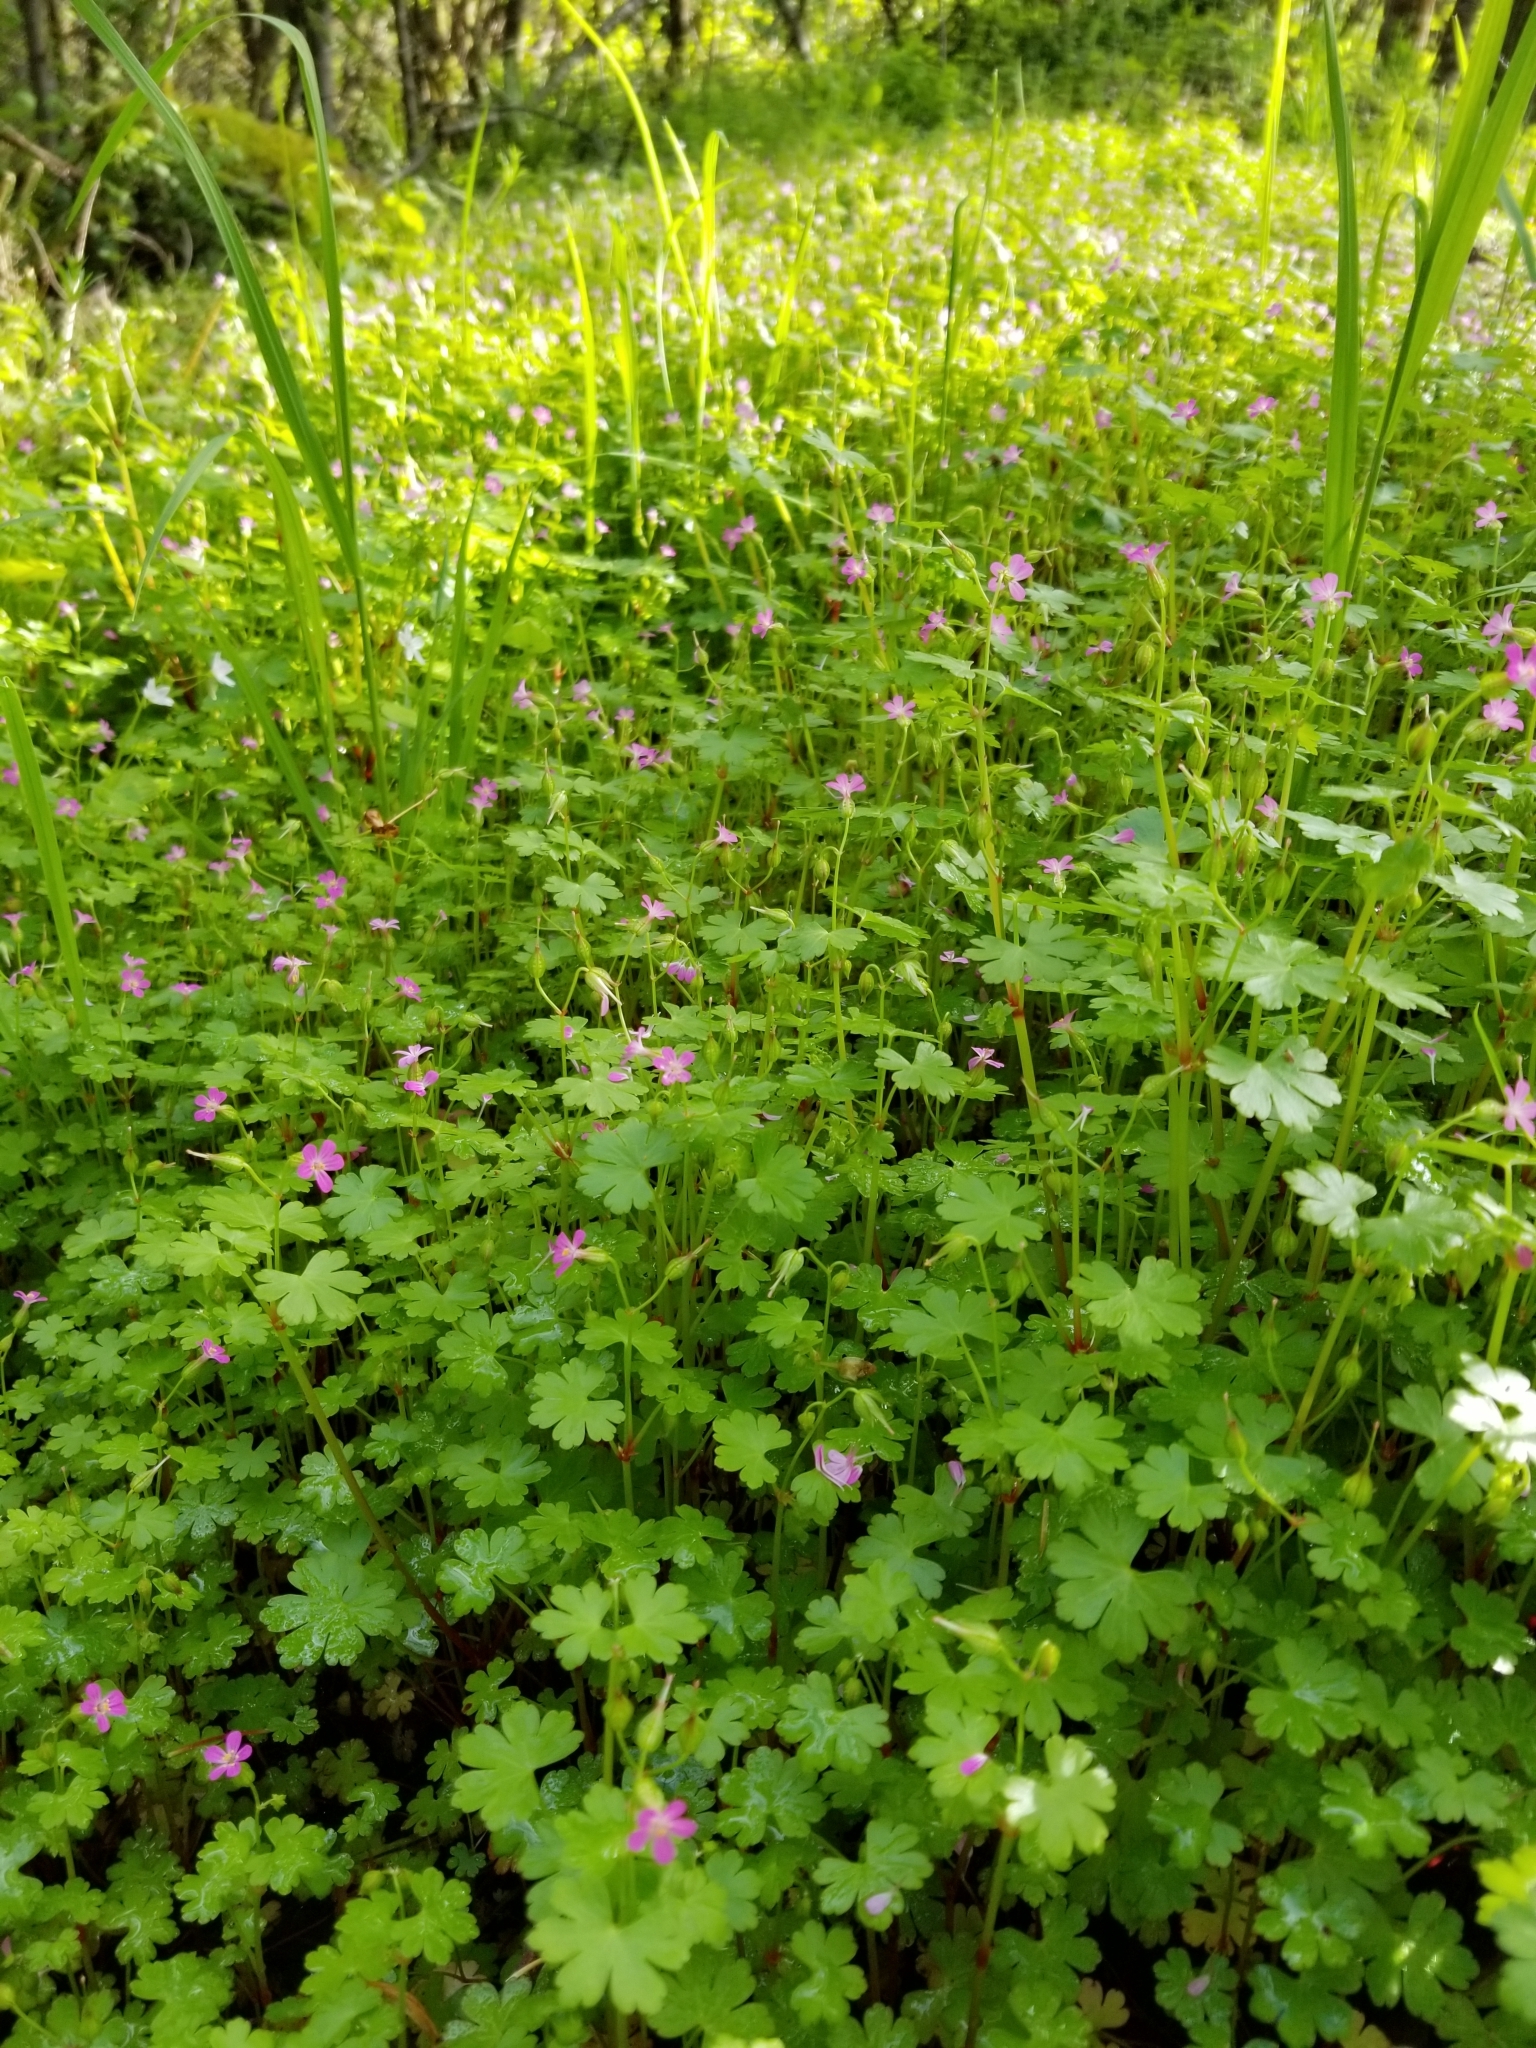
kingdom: Plantae
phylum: Tracheophyta
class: Magnoliopsida
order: Geraniales
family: Geraniaceae
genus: Geranium
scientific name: Geranium lucidum
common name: Shining crane's-bill
